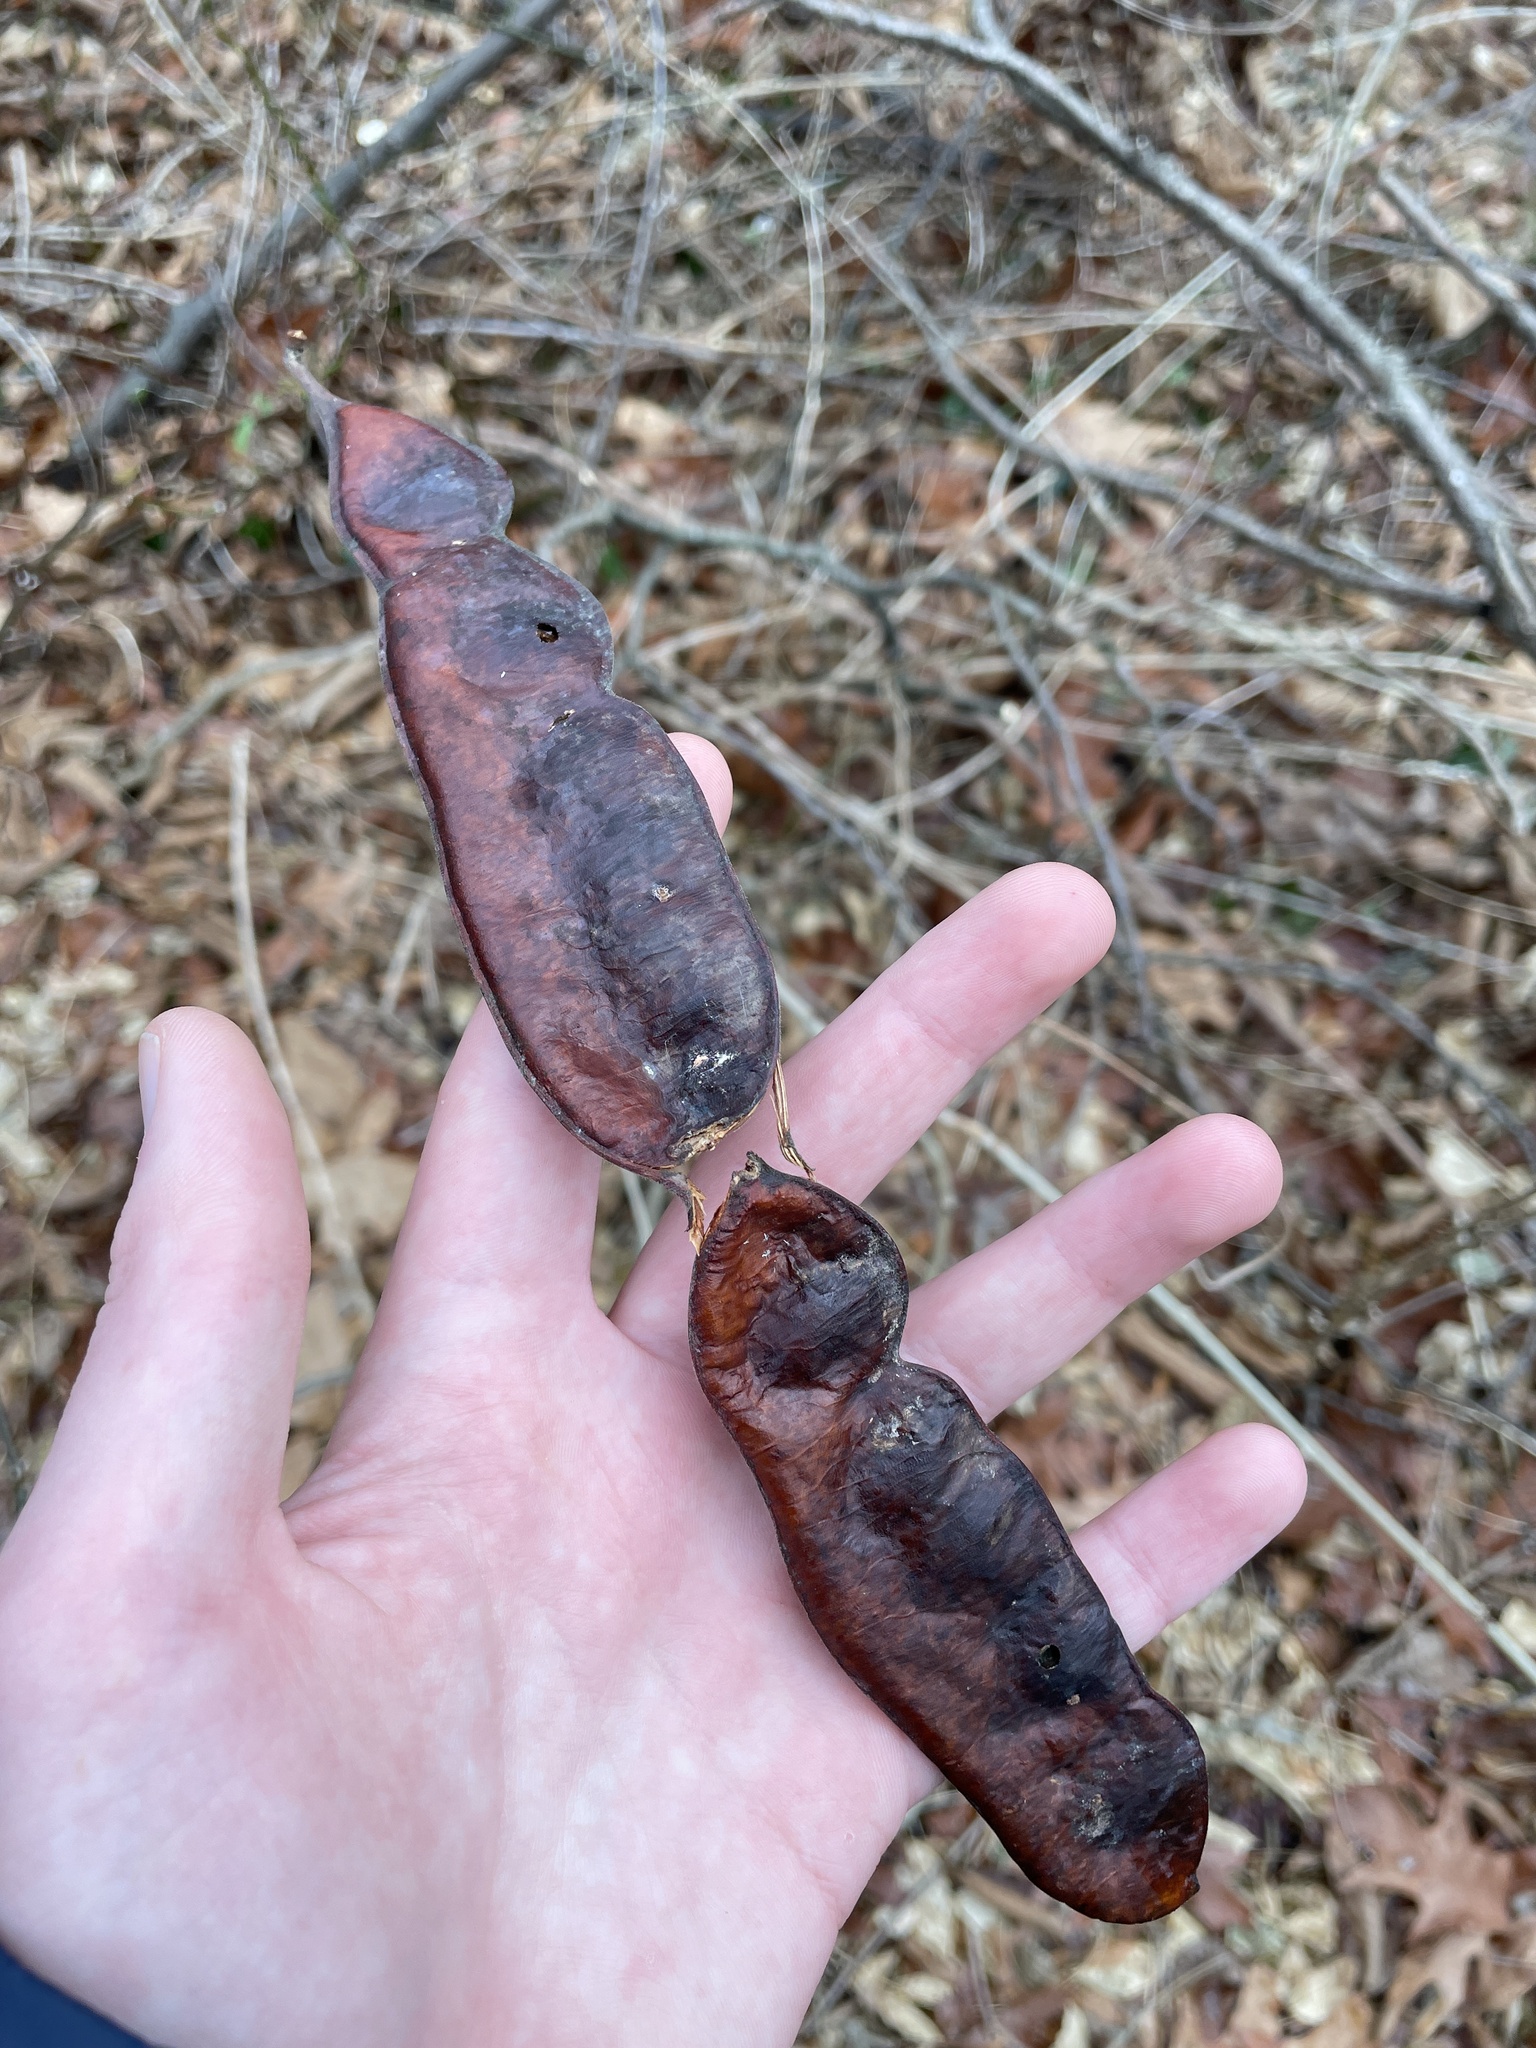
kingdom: Plantae
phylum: Tracheophyta
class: Magnoliopsida
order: Fabales
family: Fabaceae
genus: Gleditsia
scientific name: Gleditsia triacanthos
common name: Common honeylocust
